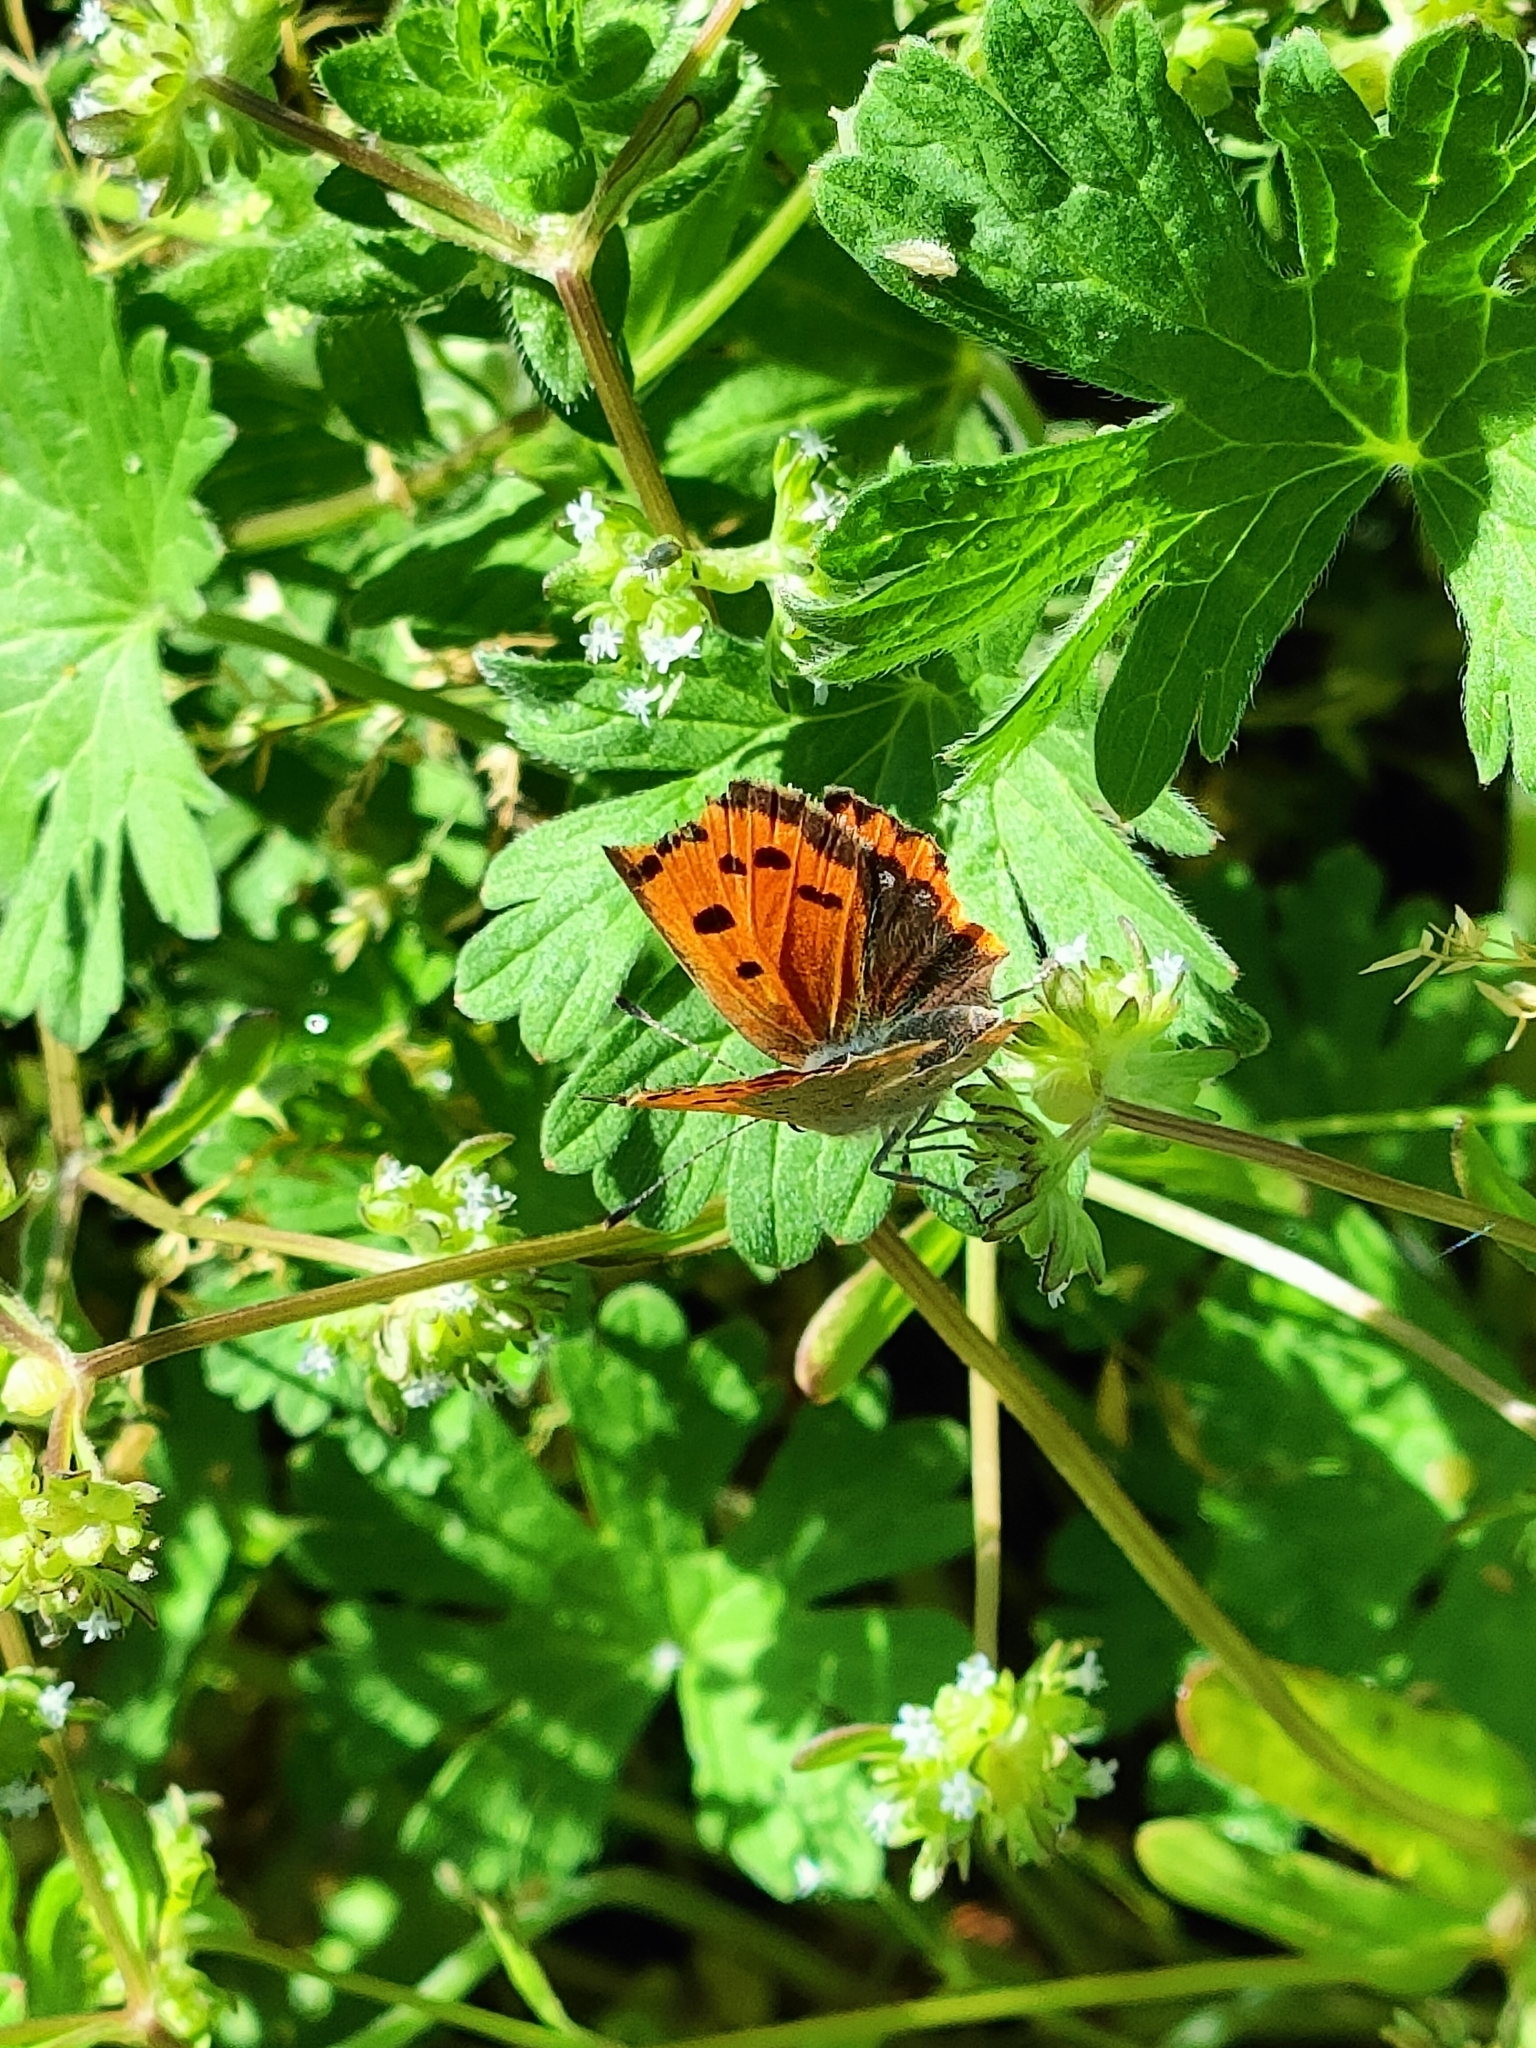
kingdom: Animalia
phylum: Arthropoda
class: Insecta
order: Lepidoptera
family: Lycaenidae
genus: Lycaena
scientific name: Lycaena phlaeas
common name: Small copper
